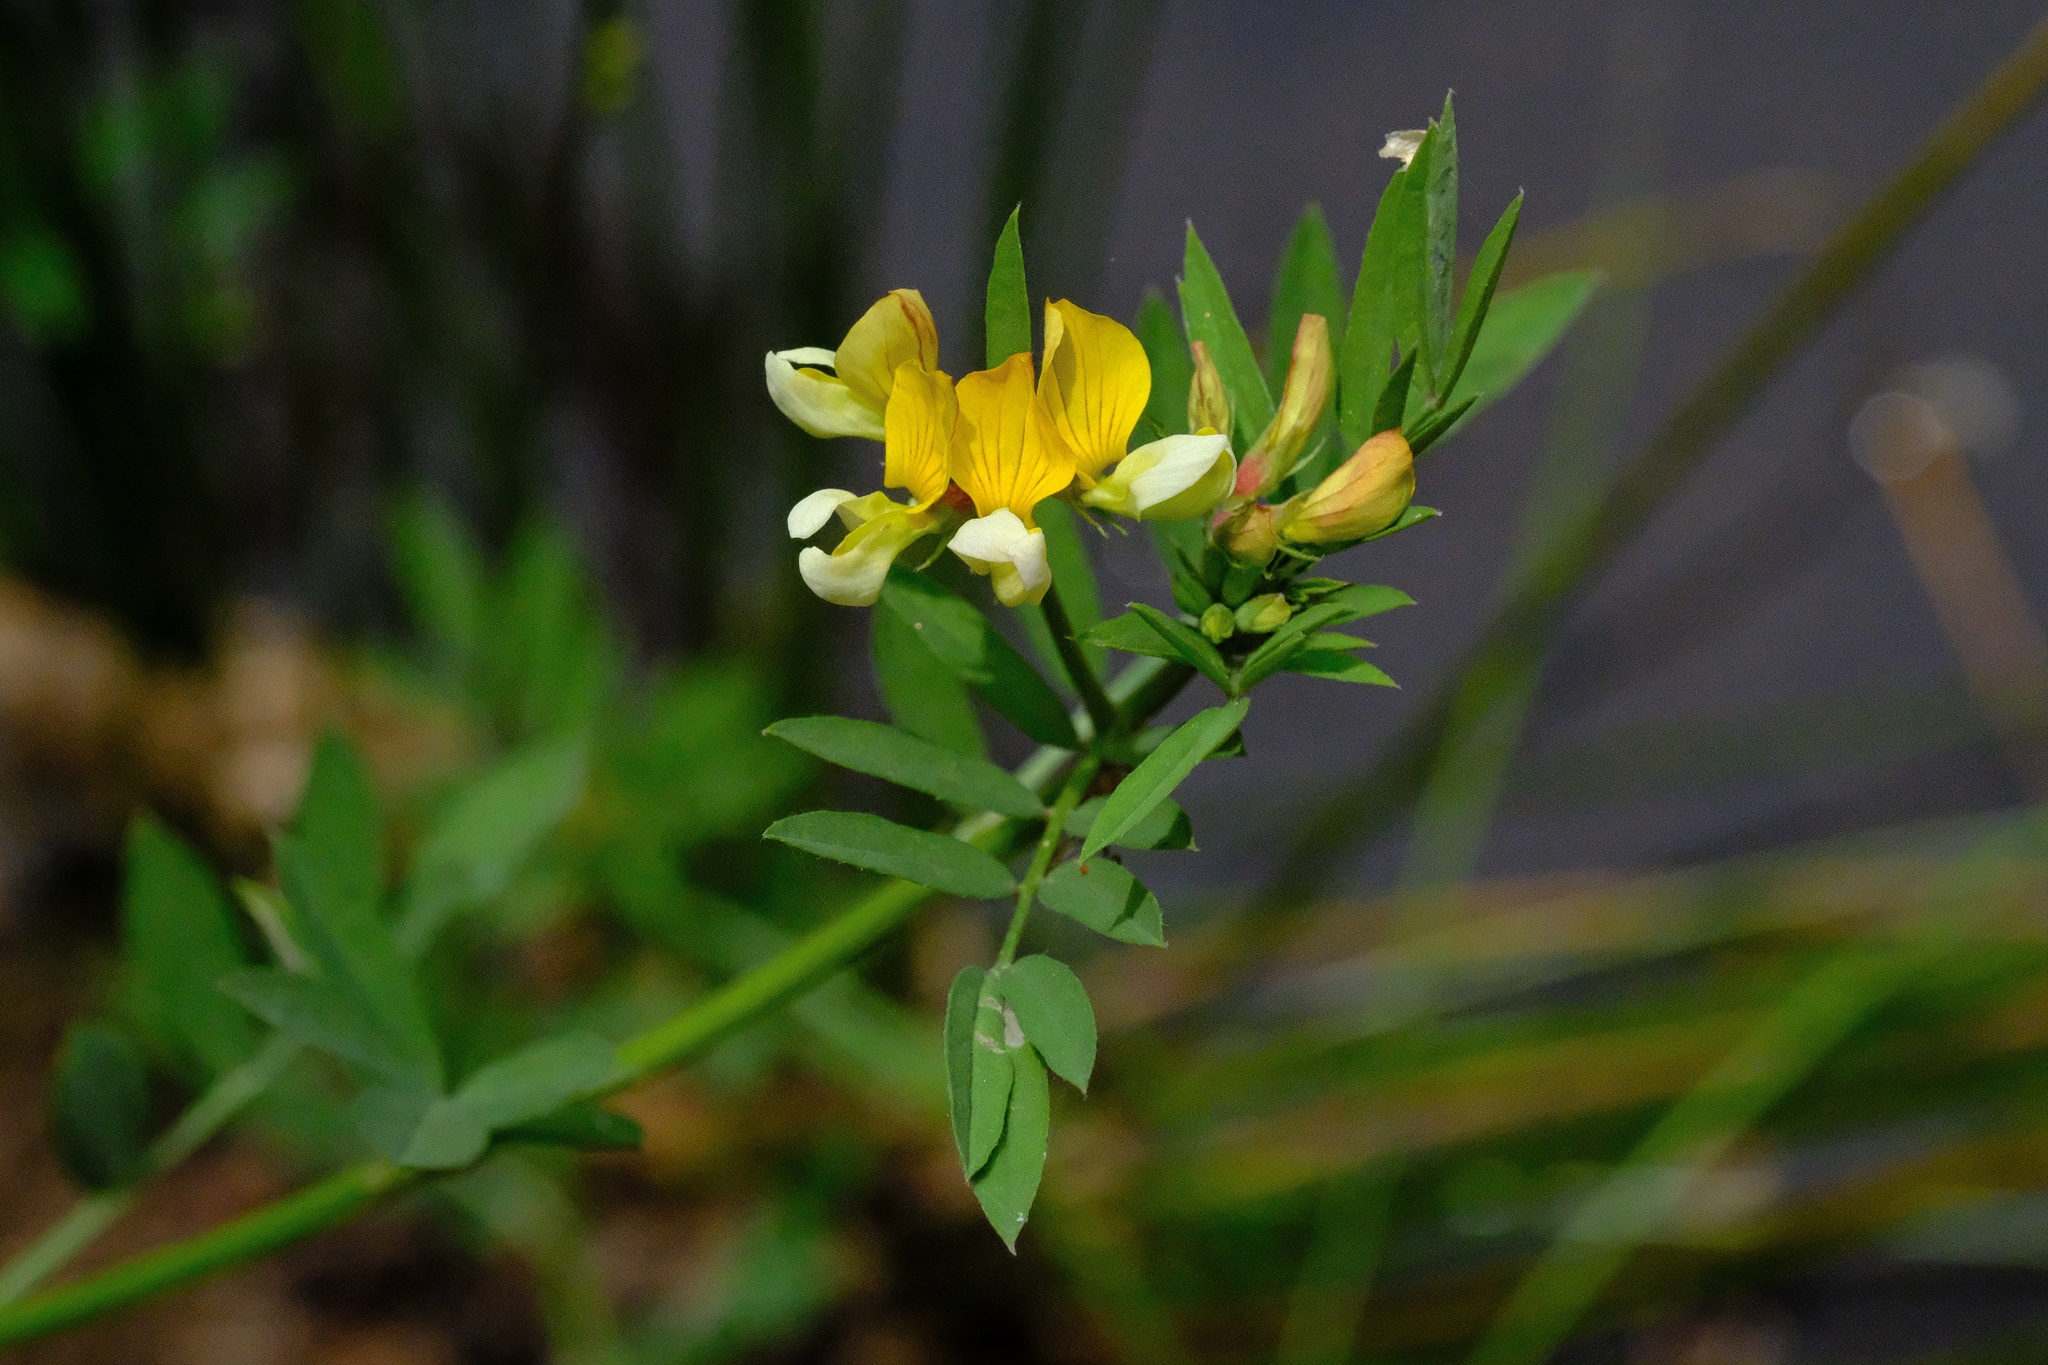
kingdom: Plantae
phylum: Tracheophyta
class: Magnoliopsida
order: Fabales
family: Fabaceae
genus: Hosackia
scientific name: Hosackia oblongifolia
